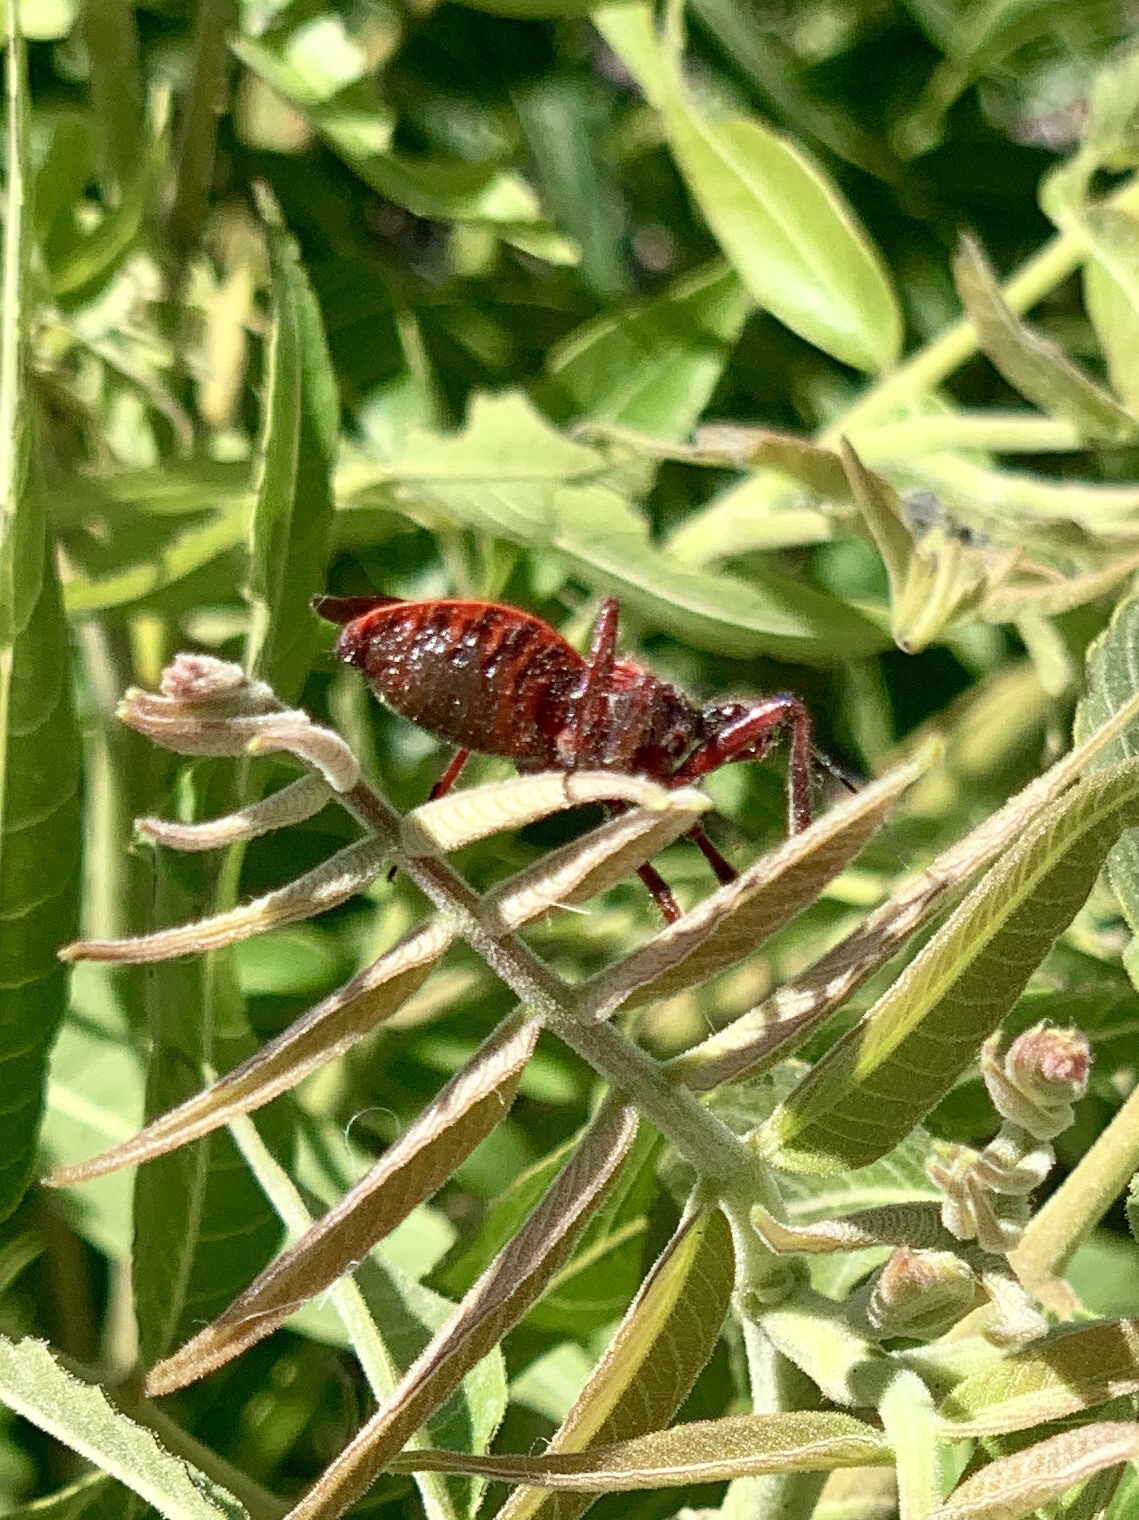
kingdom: Animalia
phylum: Arthropoda
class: Insecta
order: Hemiptera
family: Reduviidae
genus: Apiomerus
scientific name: Apiomerus cazieri
